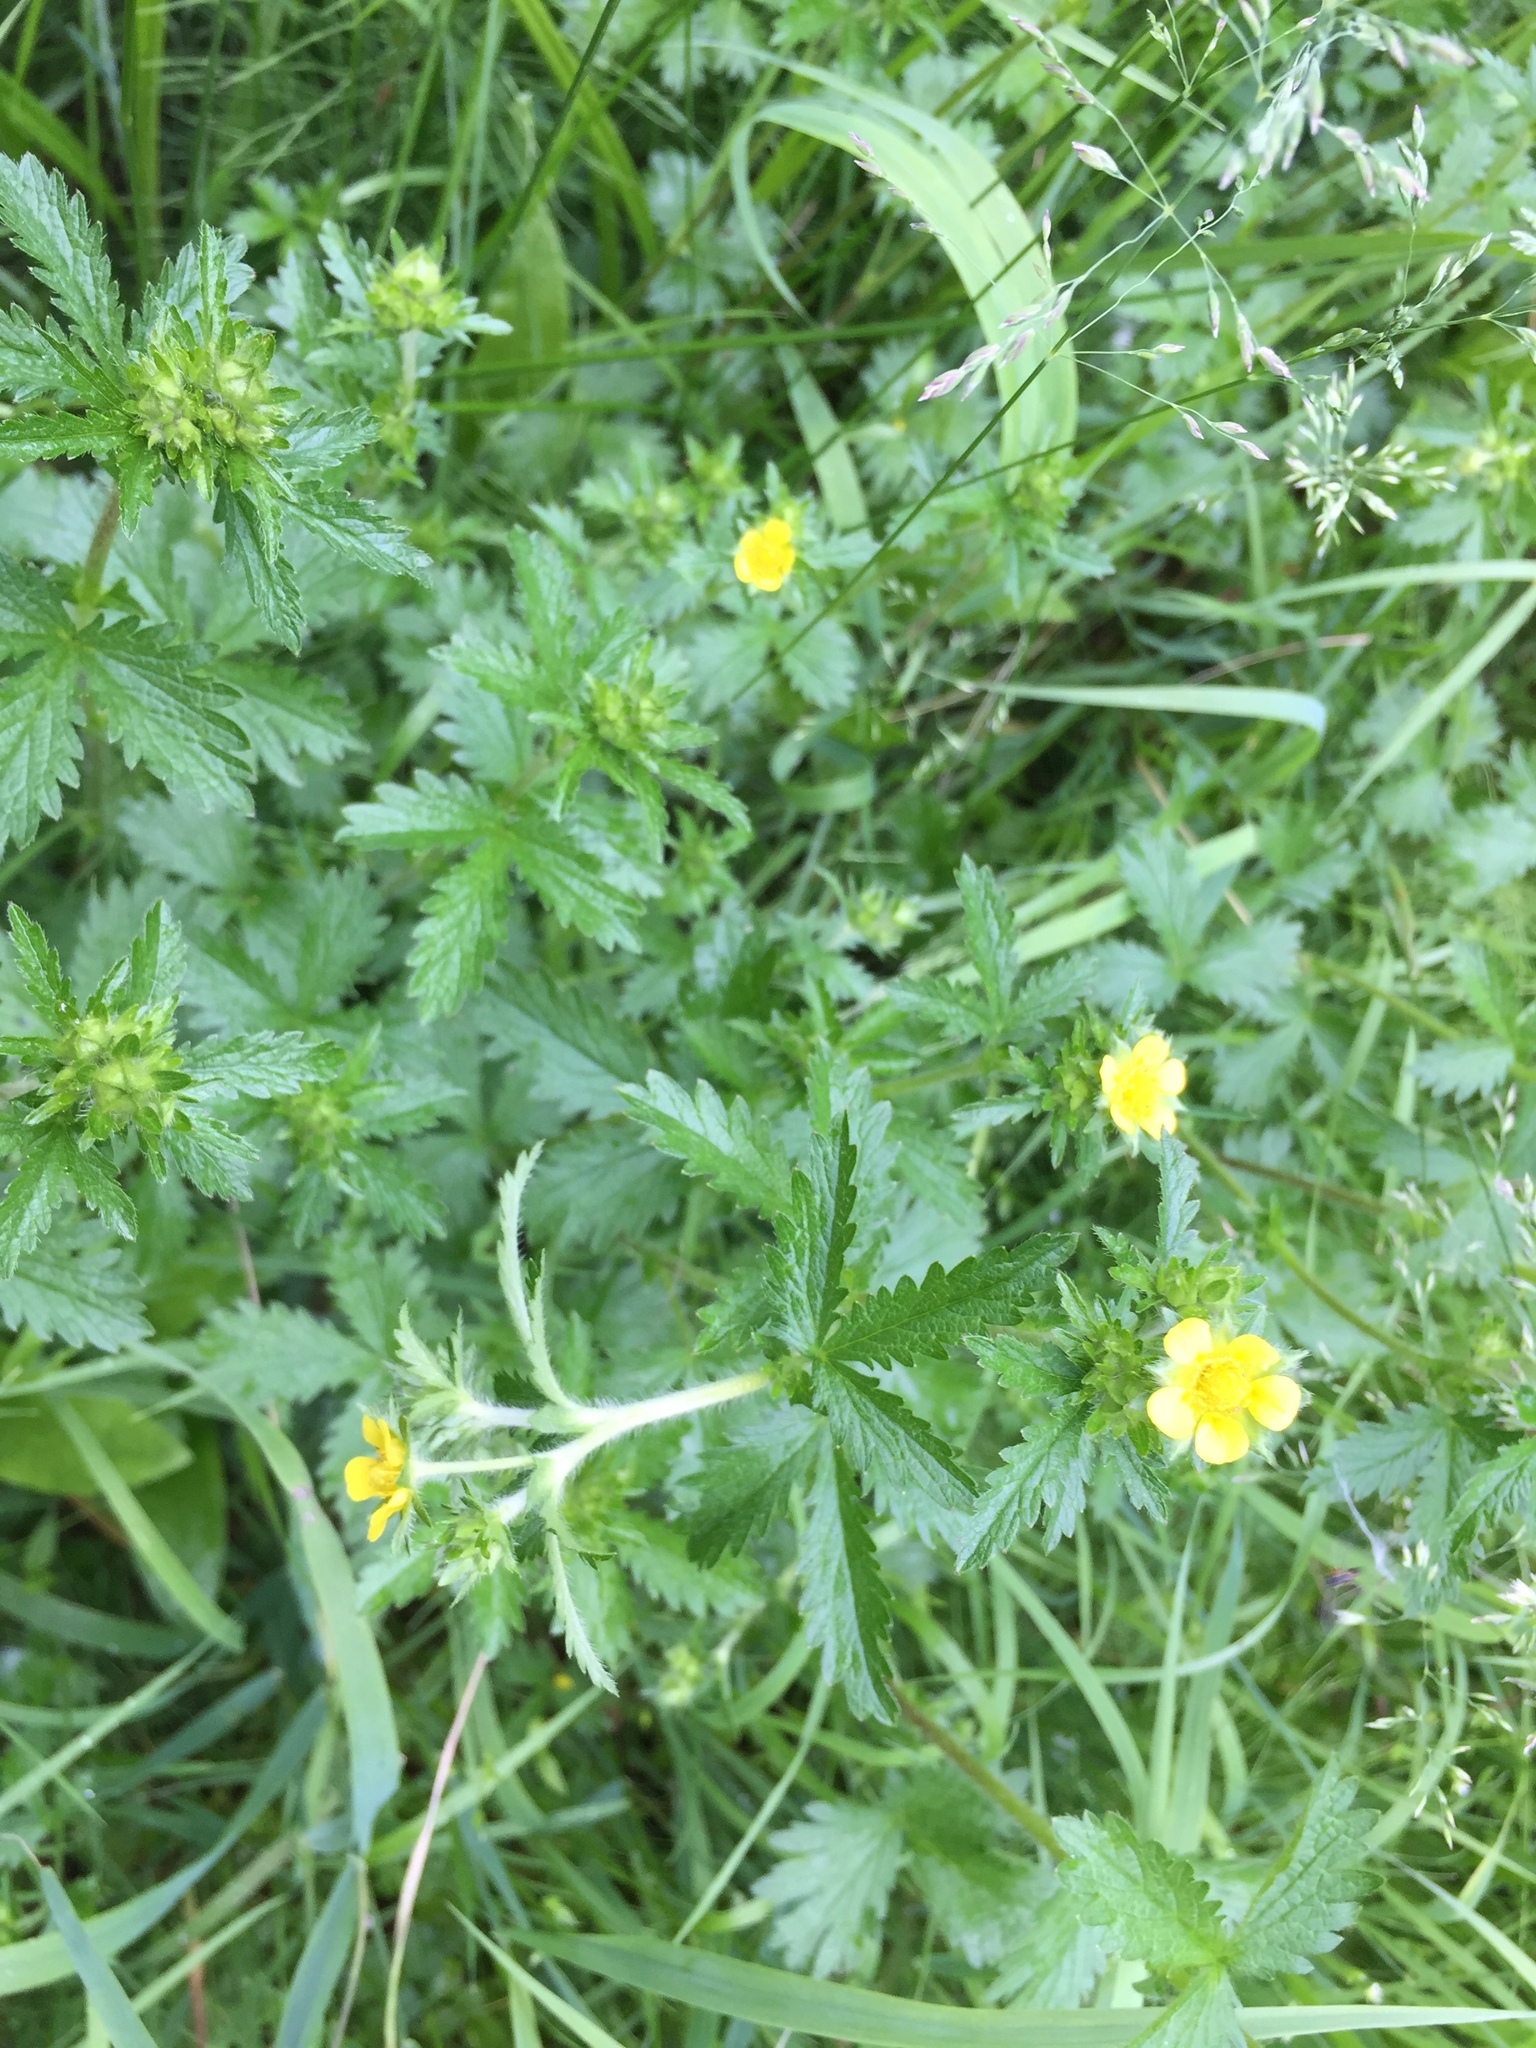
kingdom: Plantae
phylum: Tracheophyta
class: Magnoliopsida
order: Rosales
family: Rosaceae
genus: Potentilla
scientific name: Potentilla norvegica
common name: Ternate-leaved cinquefoil
